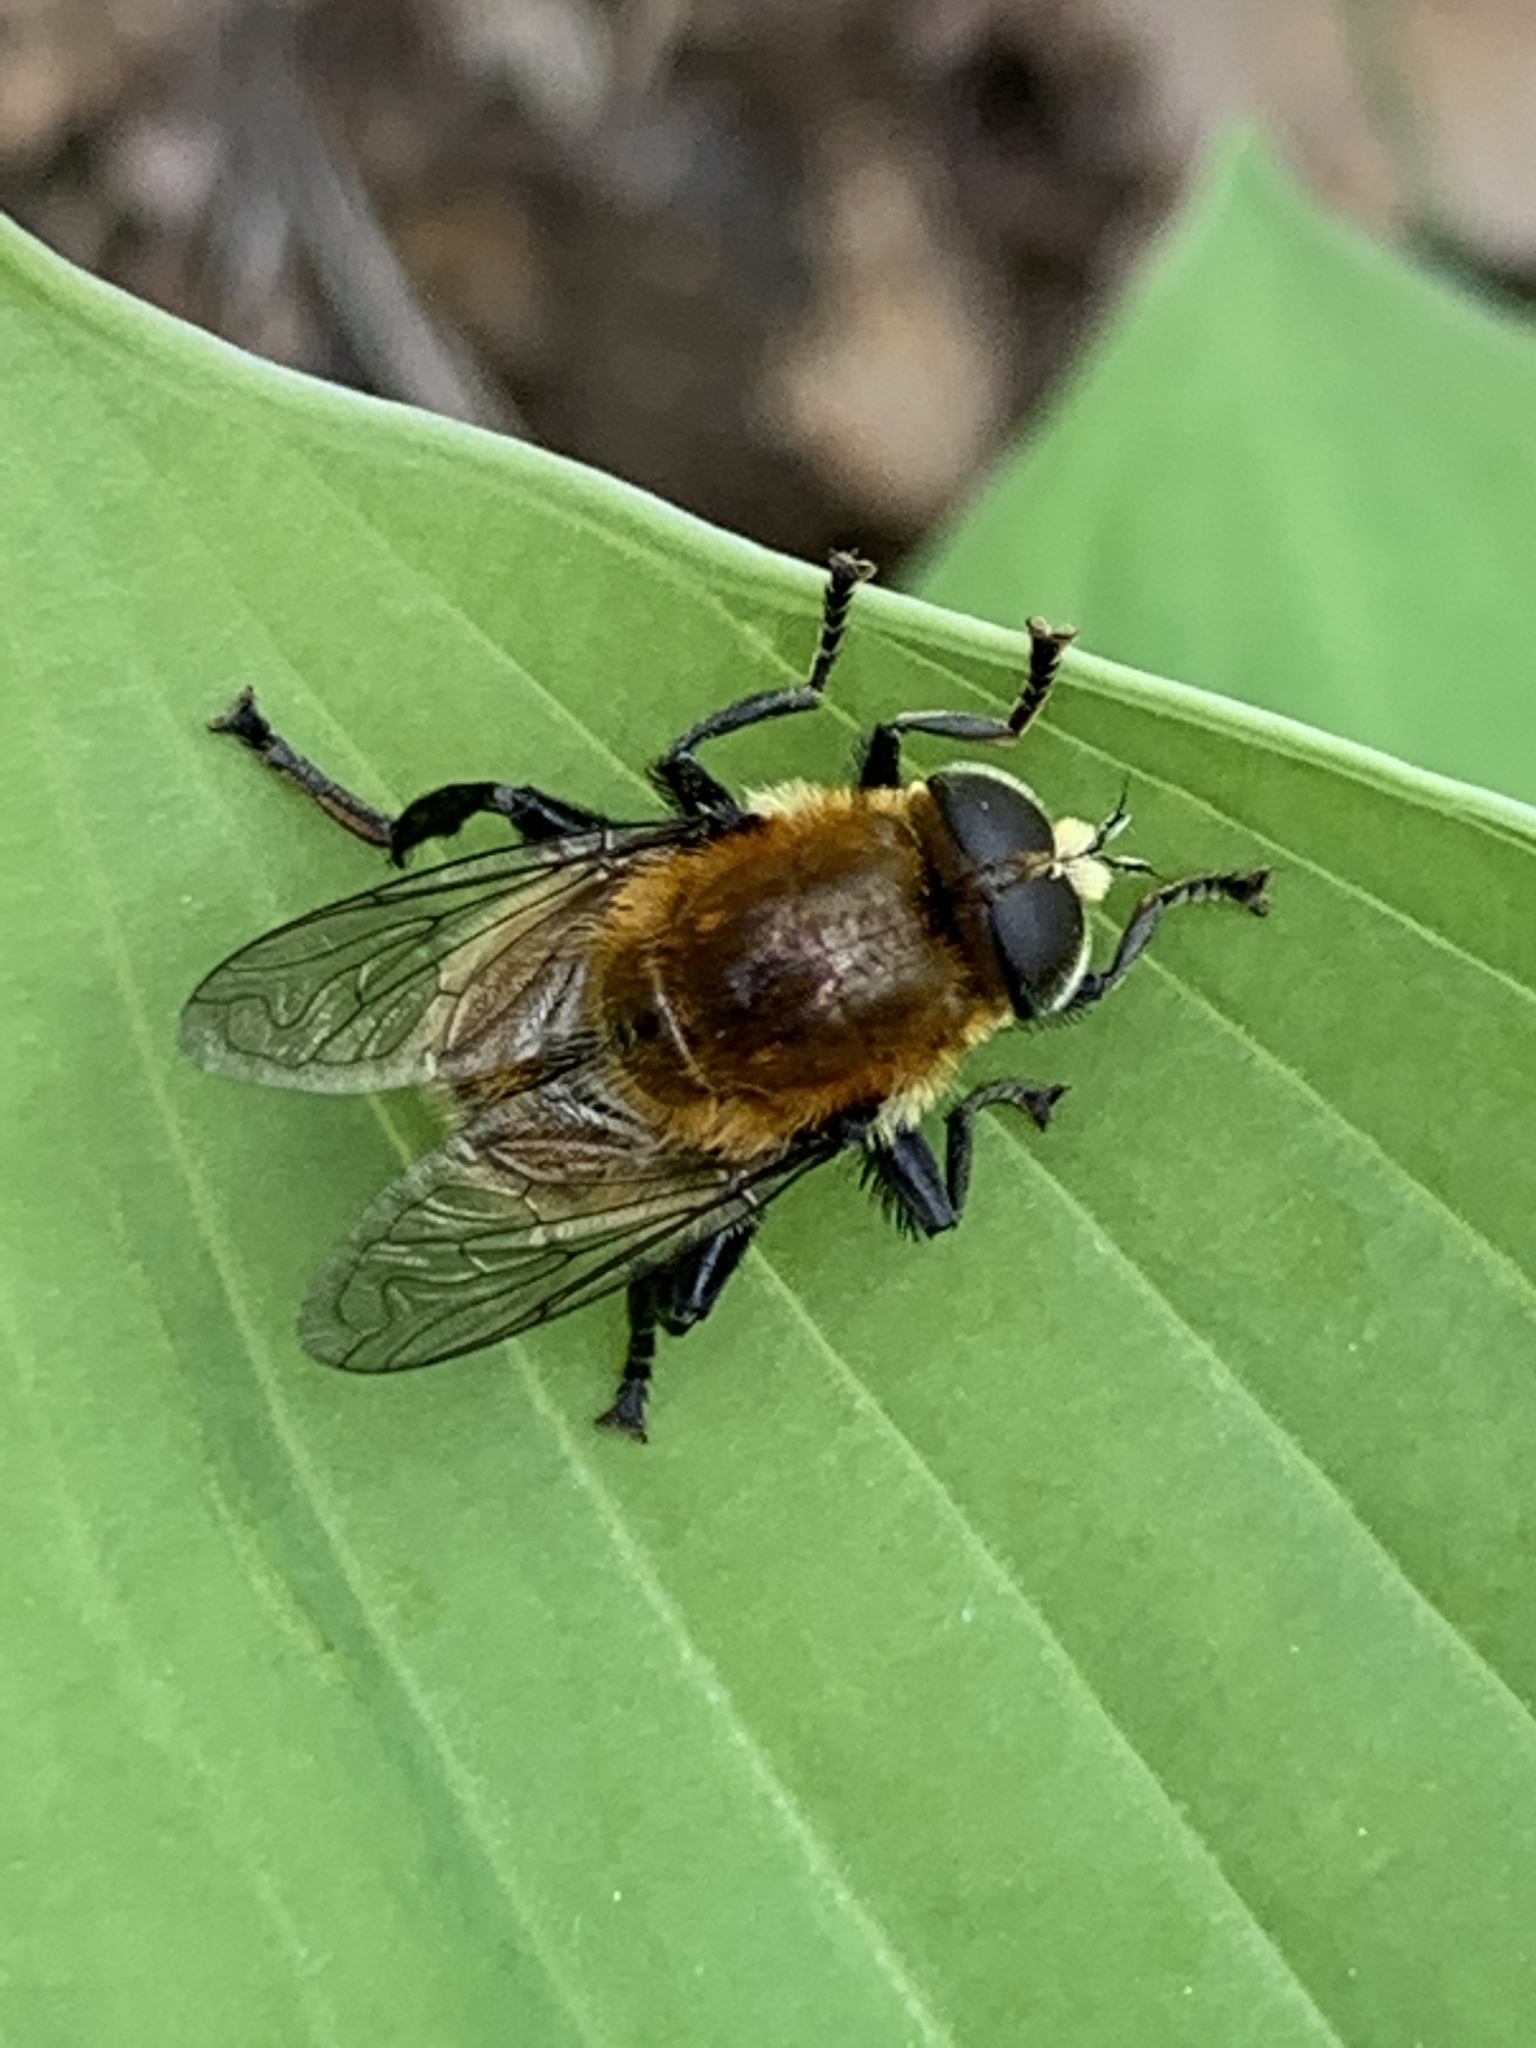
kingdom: Animalia
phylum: Arthropoda
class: Insecta
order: Diptera
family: Syrphidae
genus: Merodon
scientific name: Merodon equestris
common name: Greater bulb-fly
